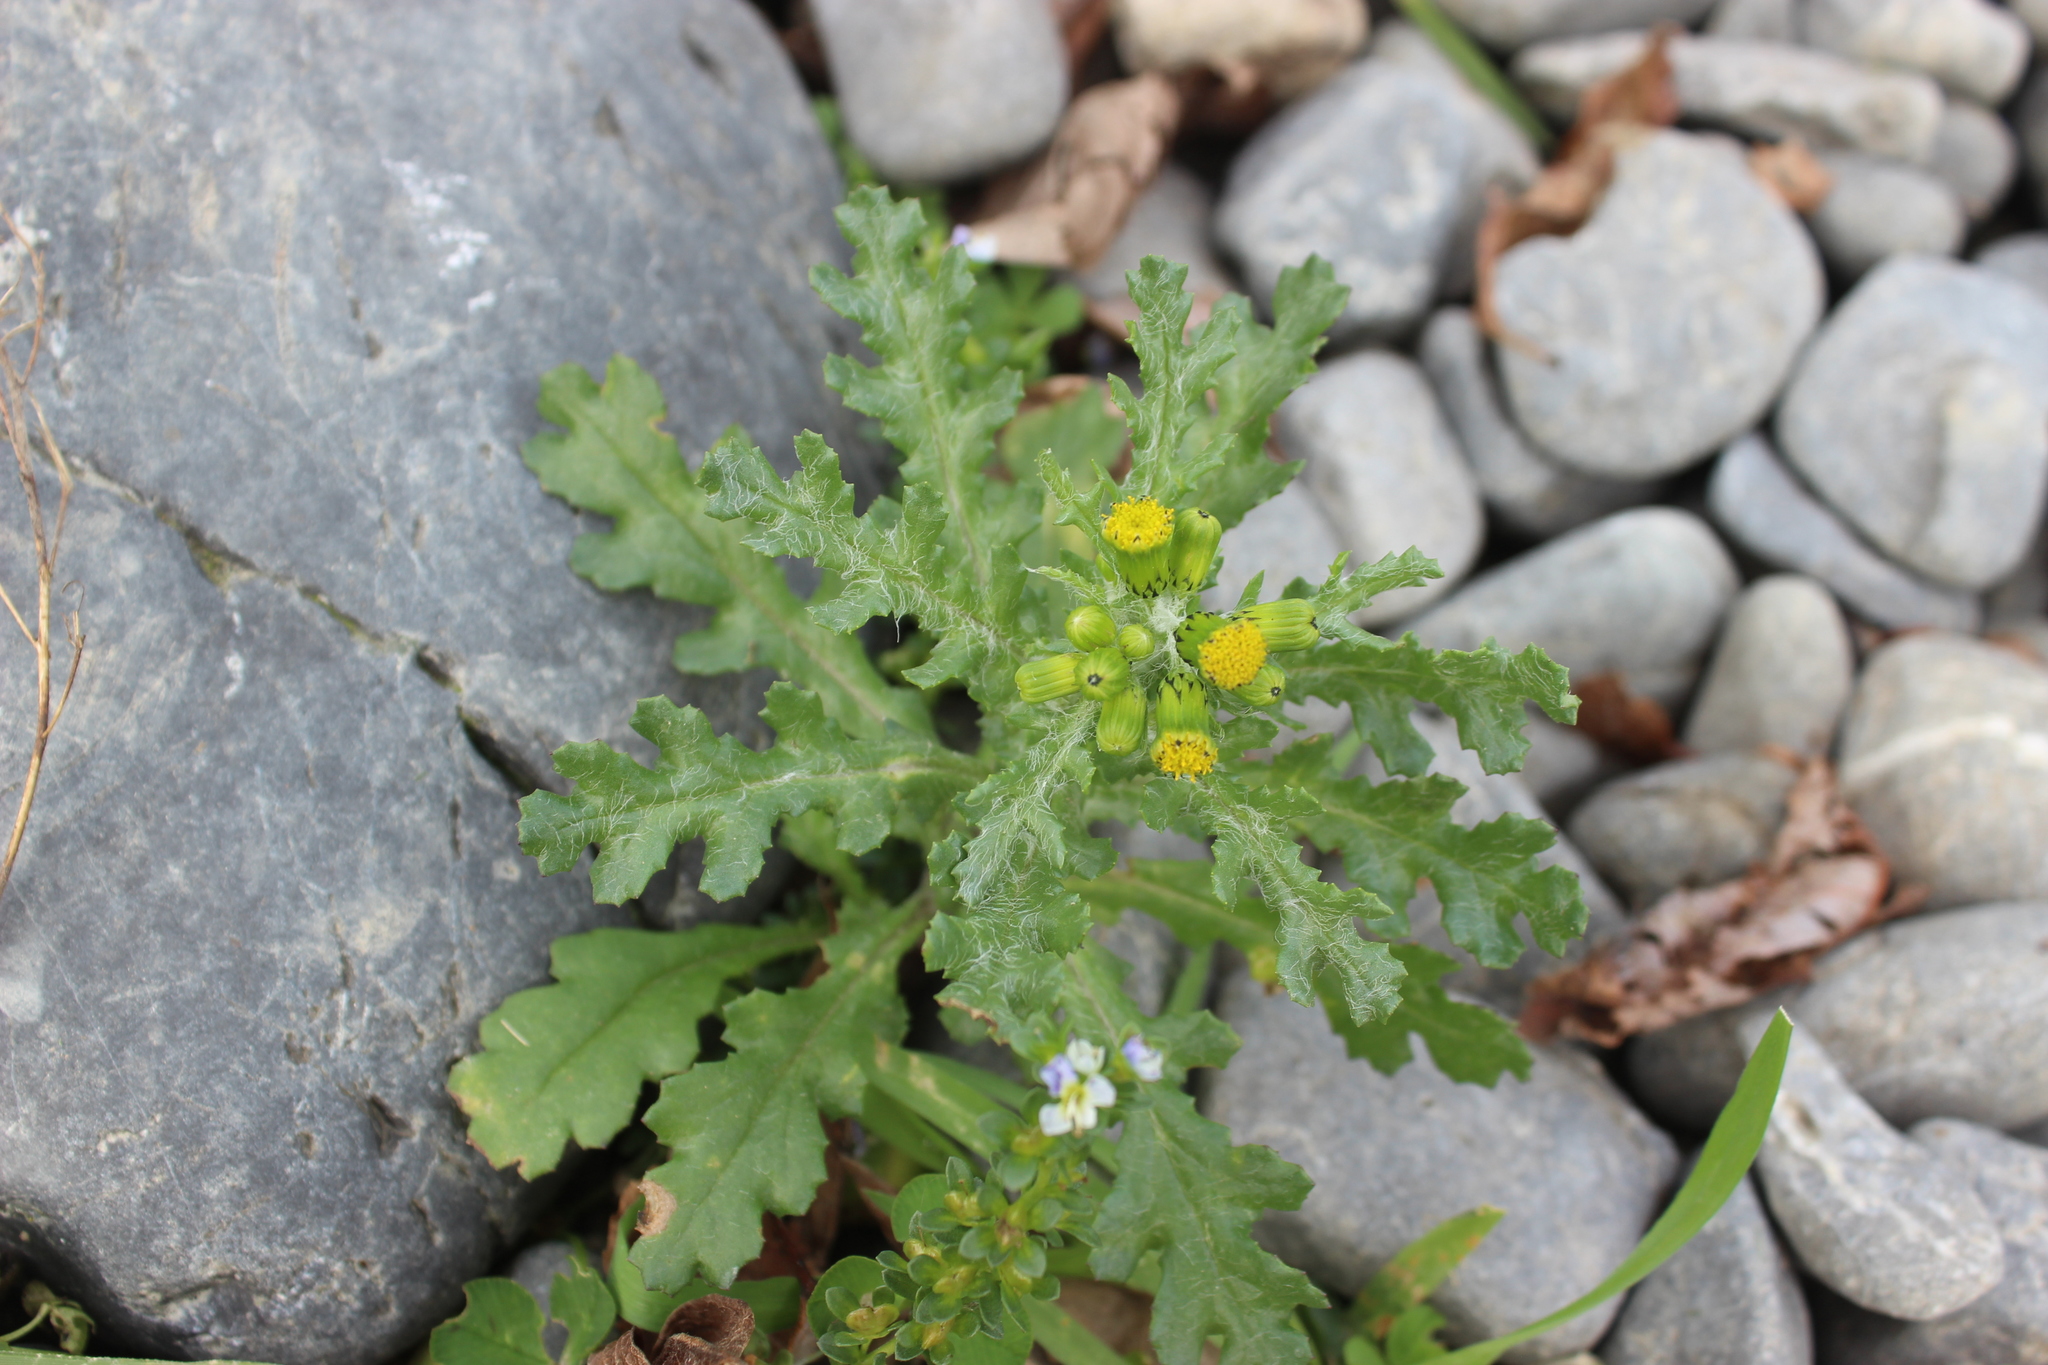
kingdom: Plantae
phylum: Tracheophyta
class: Magnoliopsida
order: Asterales
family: Asteraceae
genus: Senecio
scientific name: Senecio vulgaris
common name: Old-man-in-the-spring
